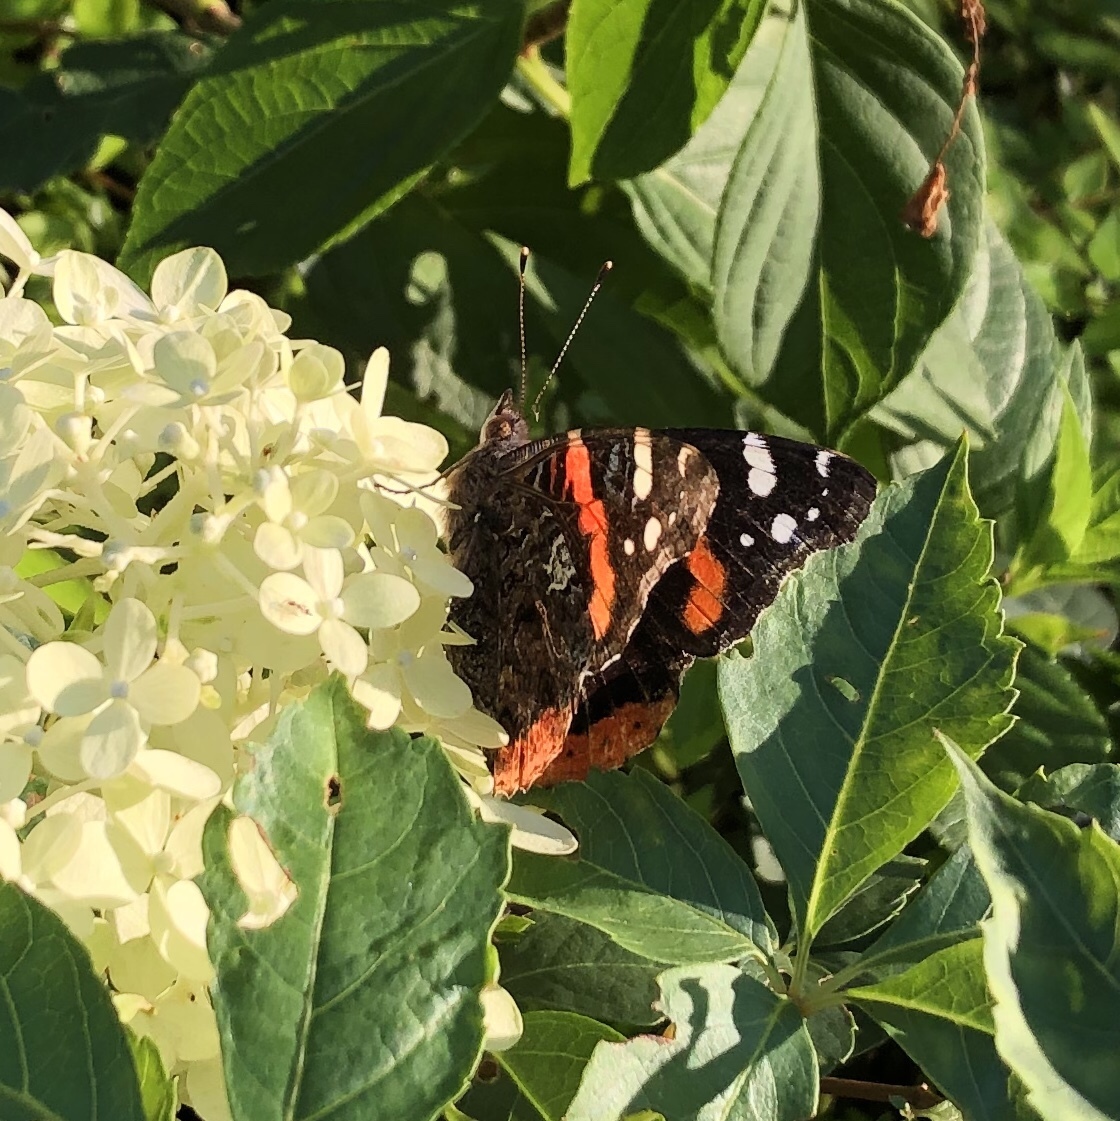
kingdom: Animalia
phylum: Arthropoda
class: Insecta
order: Lepidoptera
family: Nymphalidae
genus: Vanessa
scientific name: Vanessa atalanta
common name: Red admiral
